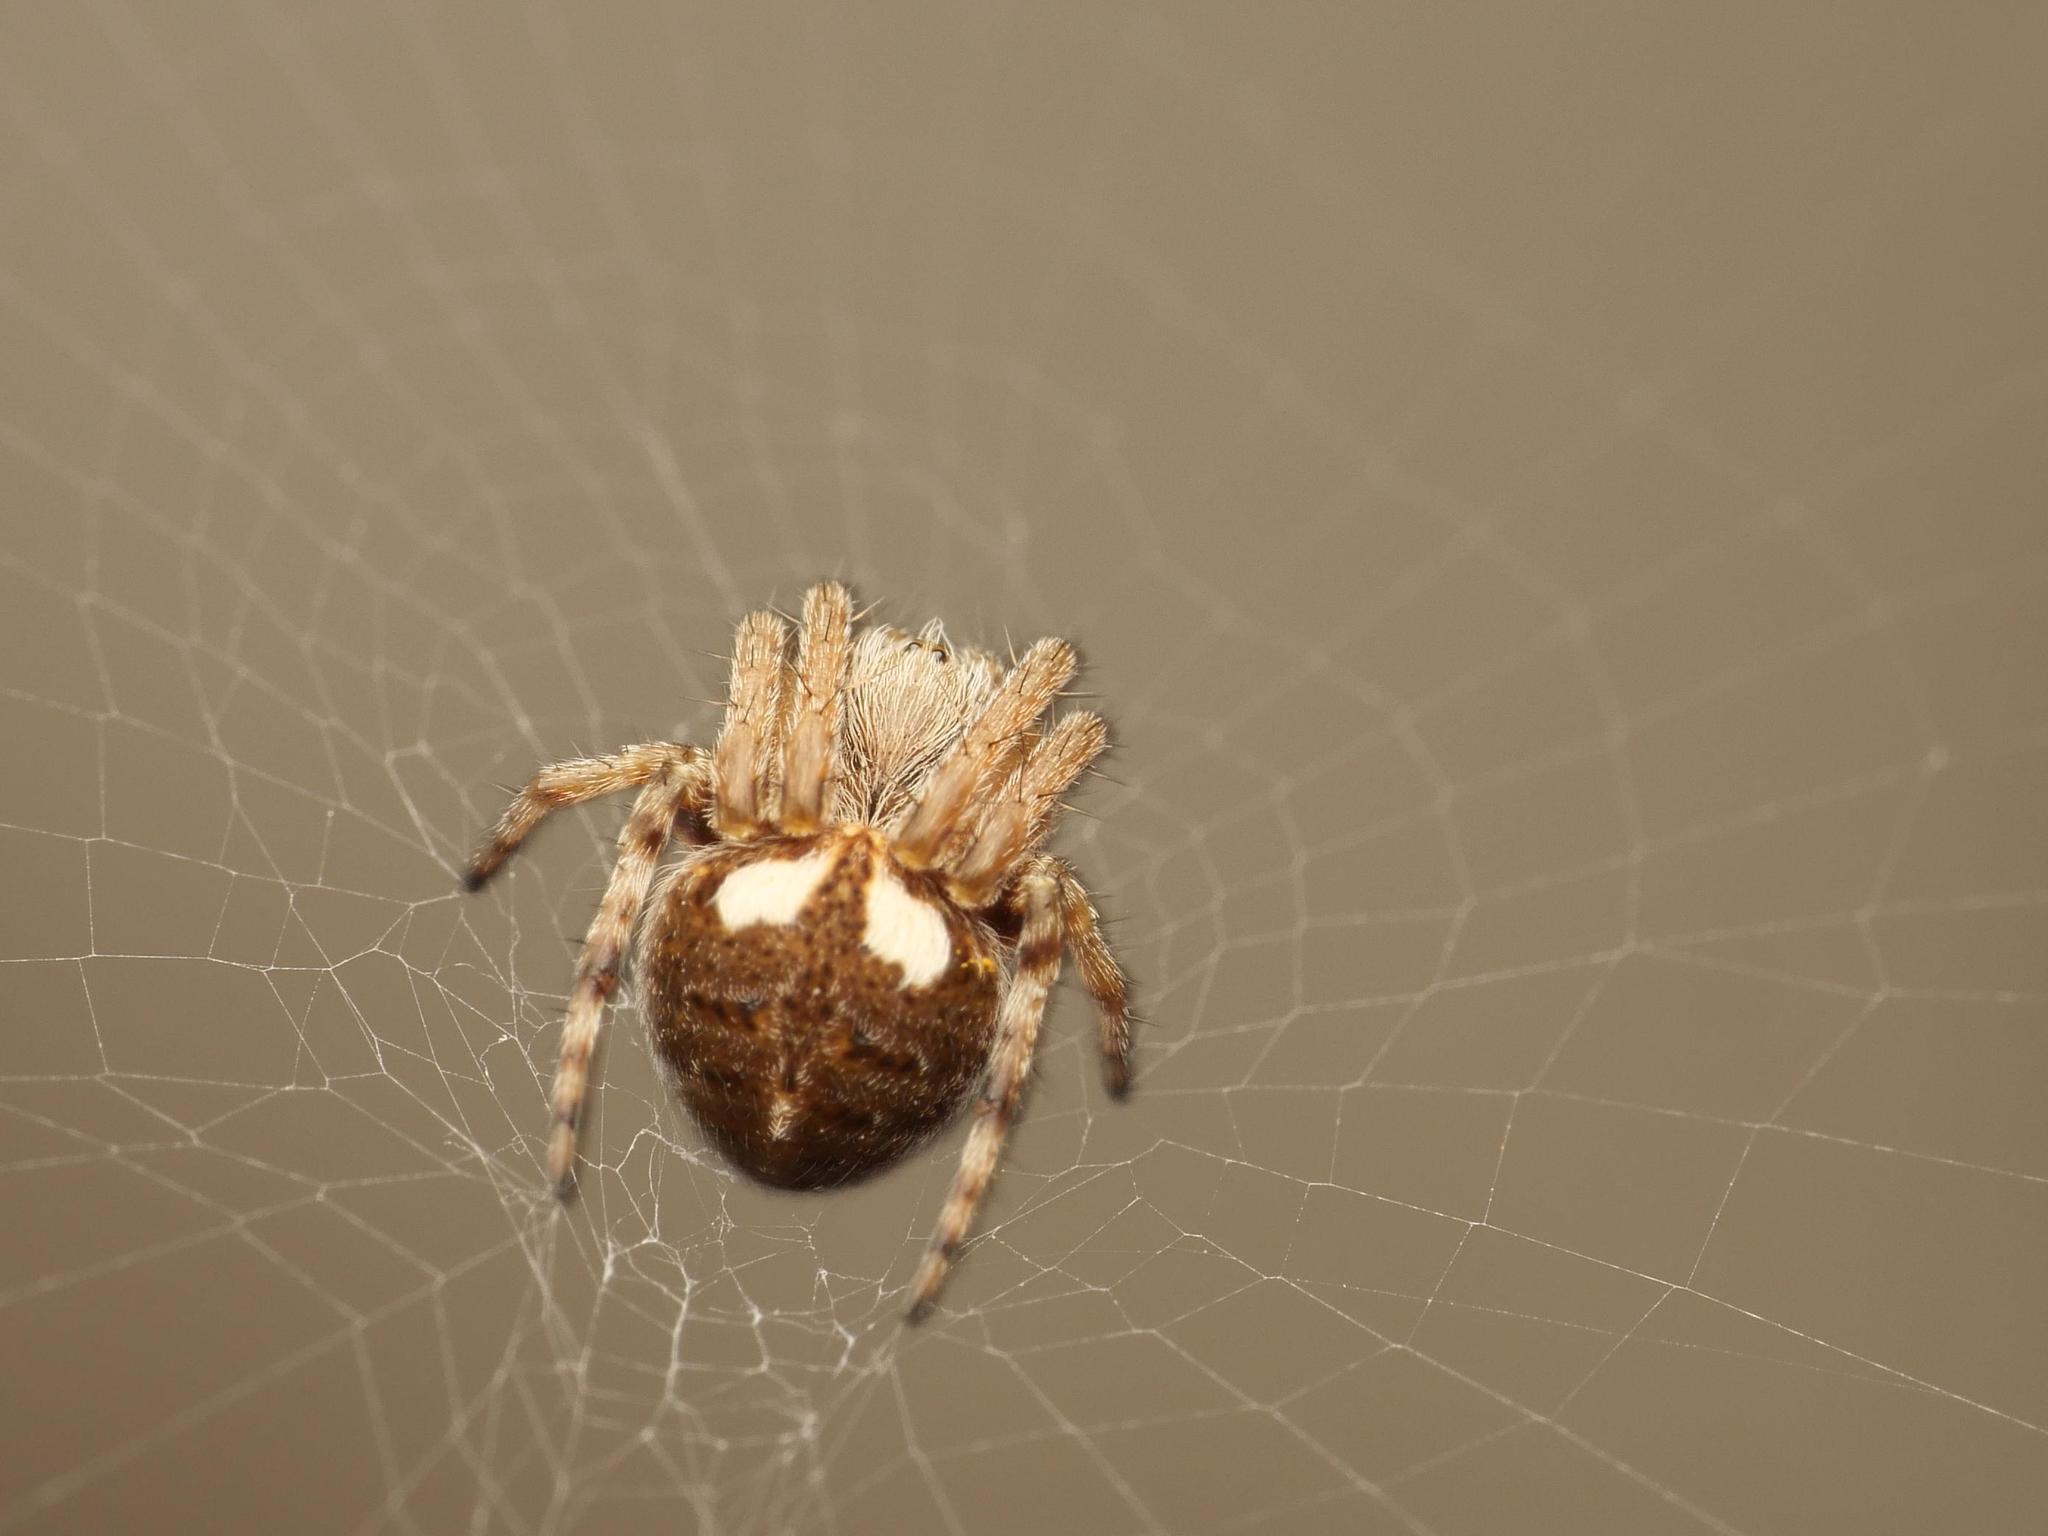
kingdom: Animalia
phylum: Arthropoda
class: Arachnida
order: Araneae
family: Araneidae
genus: Agalenatea
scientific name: Agalenatea redii
